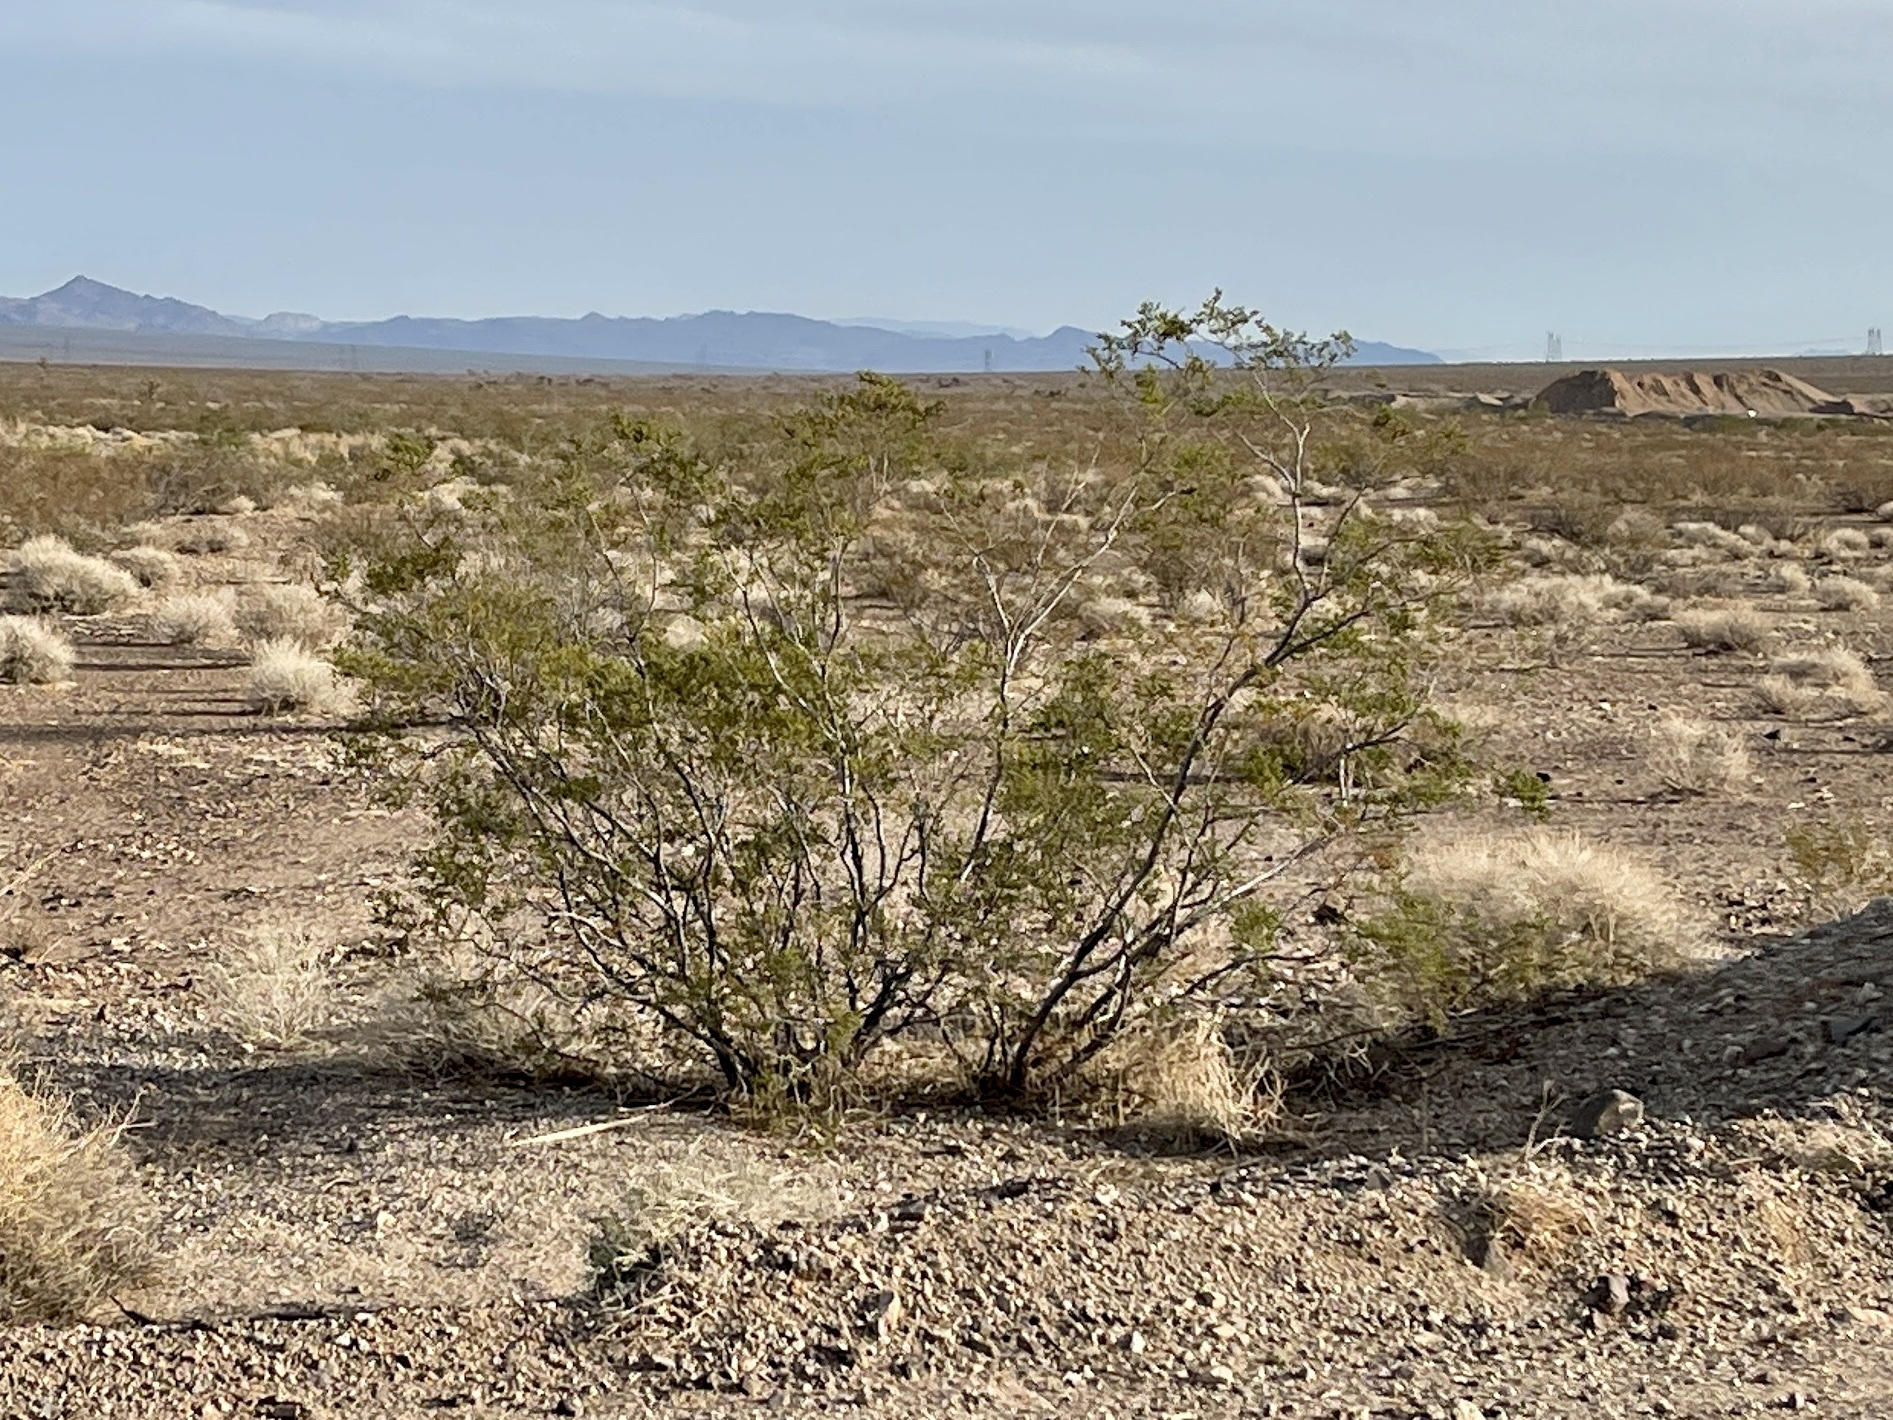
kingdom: Plantae
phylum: Tracheophyta
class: Magnoliopsida
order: Zygophyllales
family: Zygophyllaceae
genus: Larrea
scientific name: Larrea tridentata
